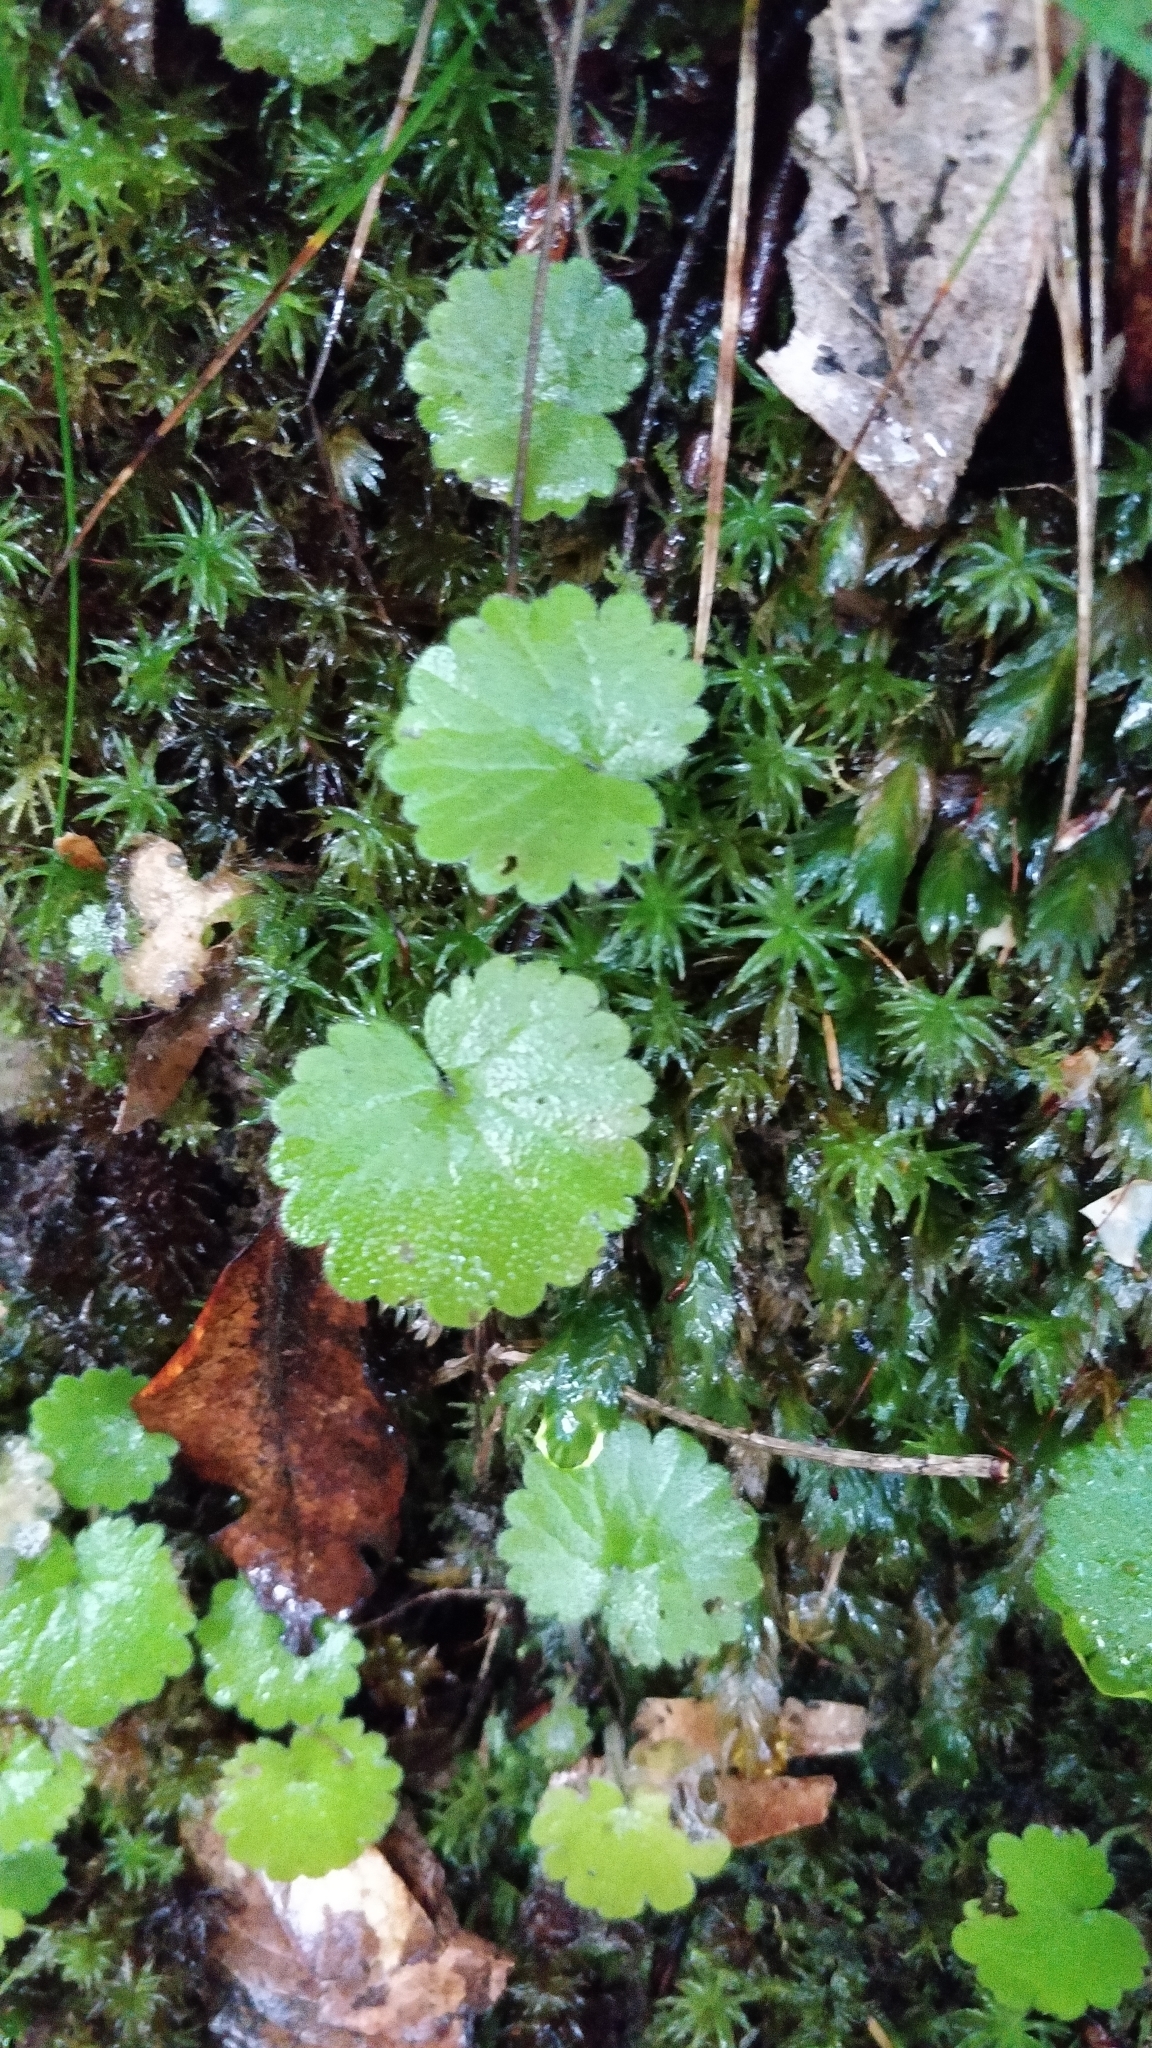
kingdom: Plantae
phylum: Tracheophyta
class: Magnoliopsida
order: Lamiales
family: Plantaginaceae
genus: Sibthorpia
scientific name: Sibthorpia peregrina
